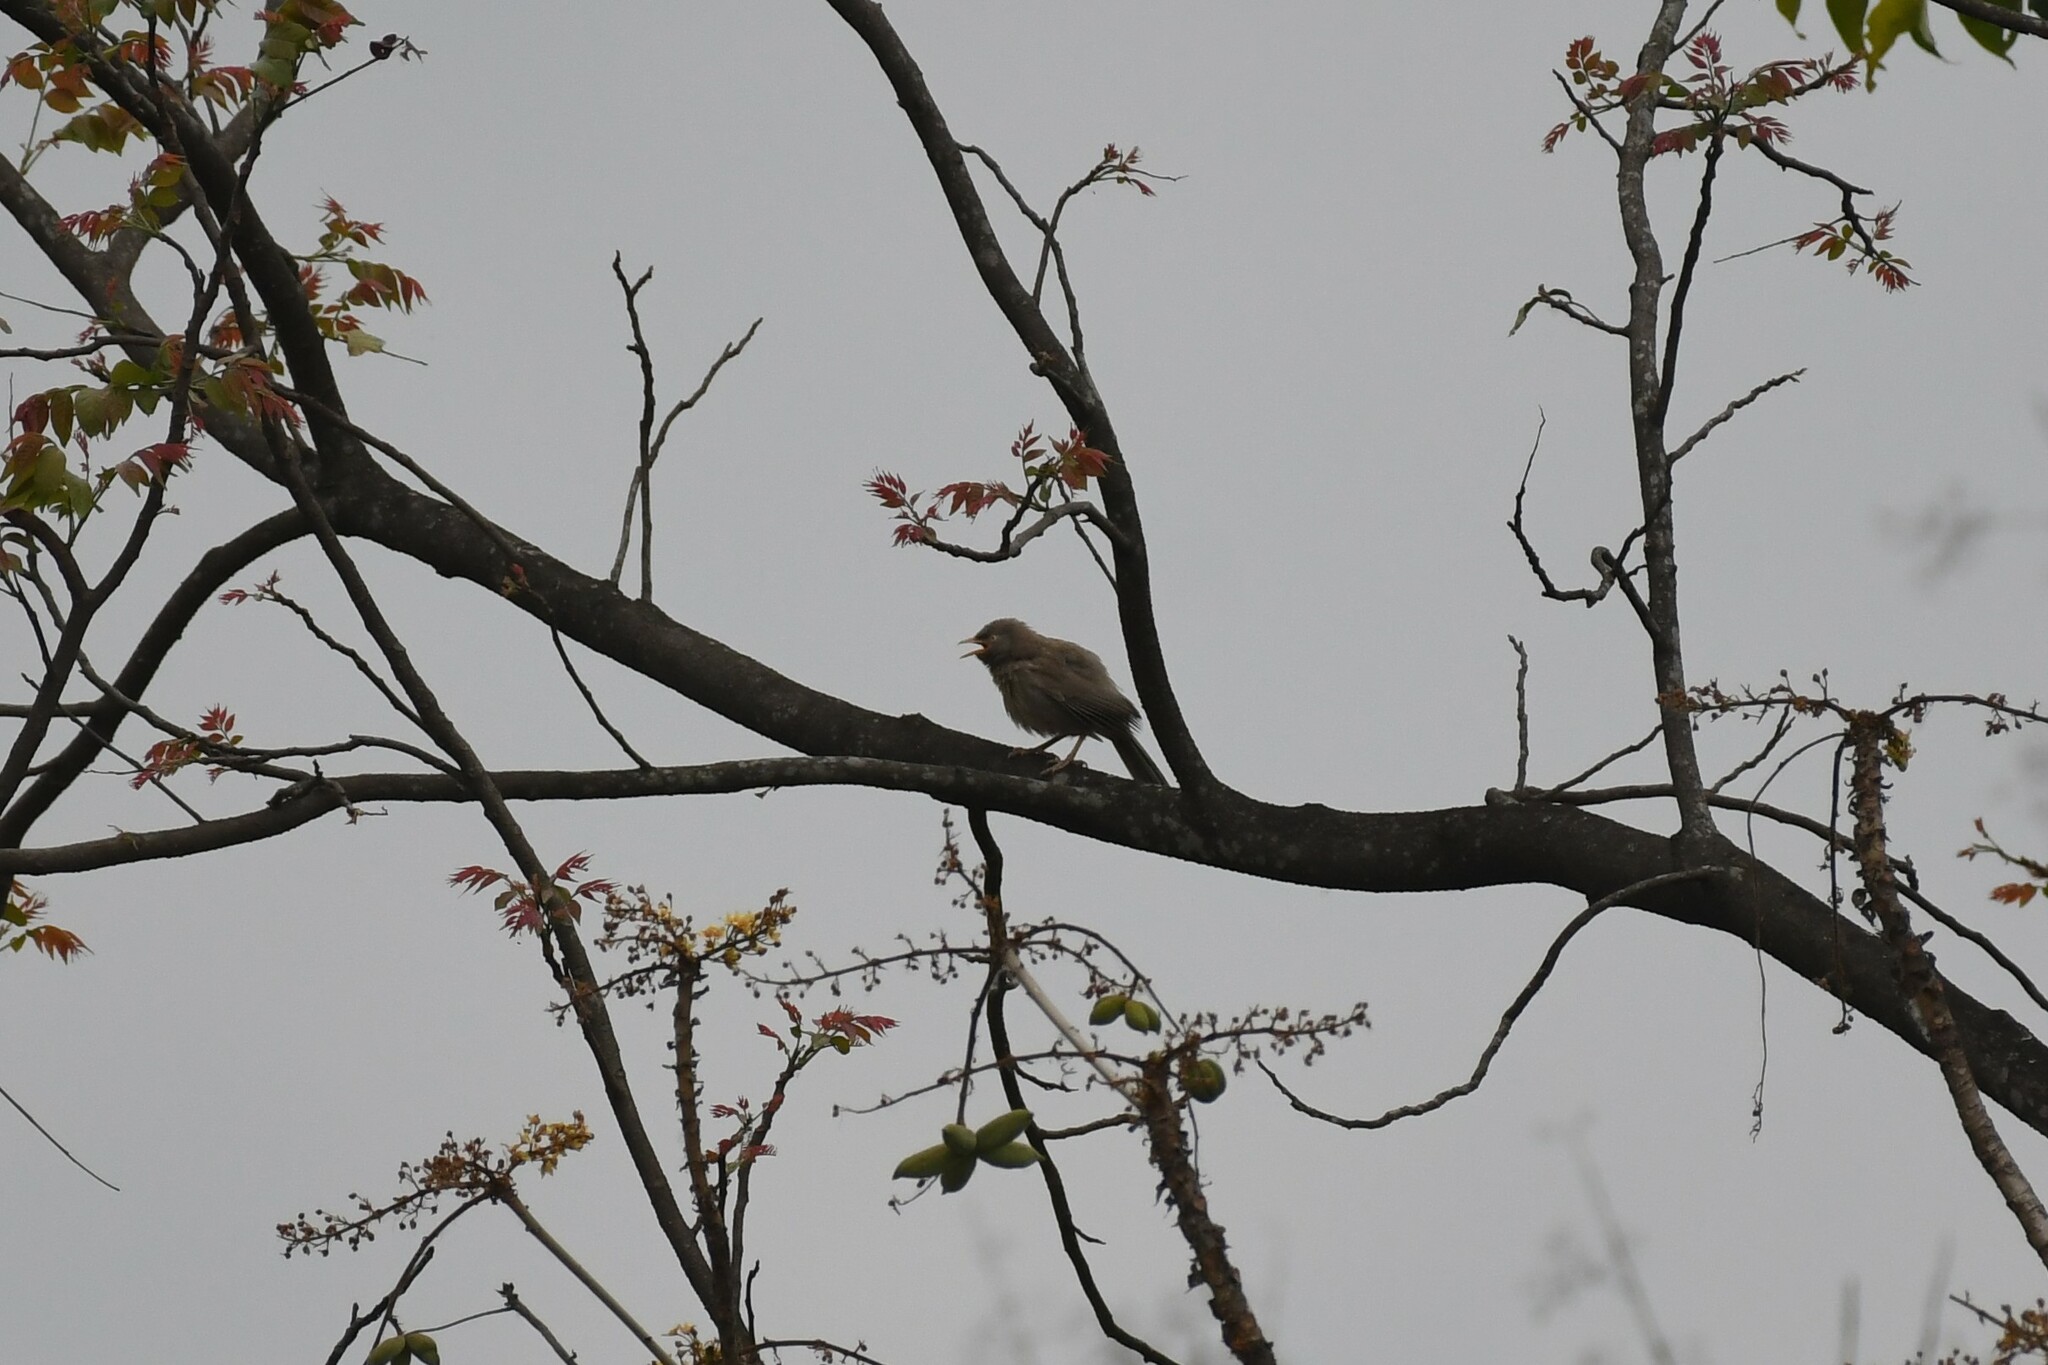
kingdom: Animalia
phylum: Chordata
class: Aves
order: Passeriformes
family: Leiothrichidae
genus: Turdoides
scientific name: Turdoides striata
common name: Jungle babbler
